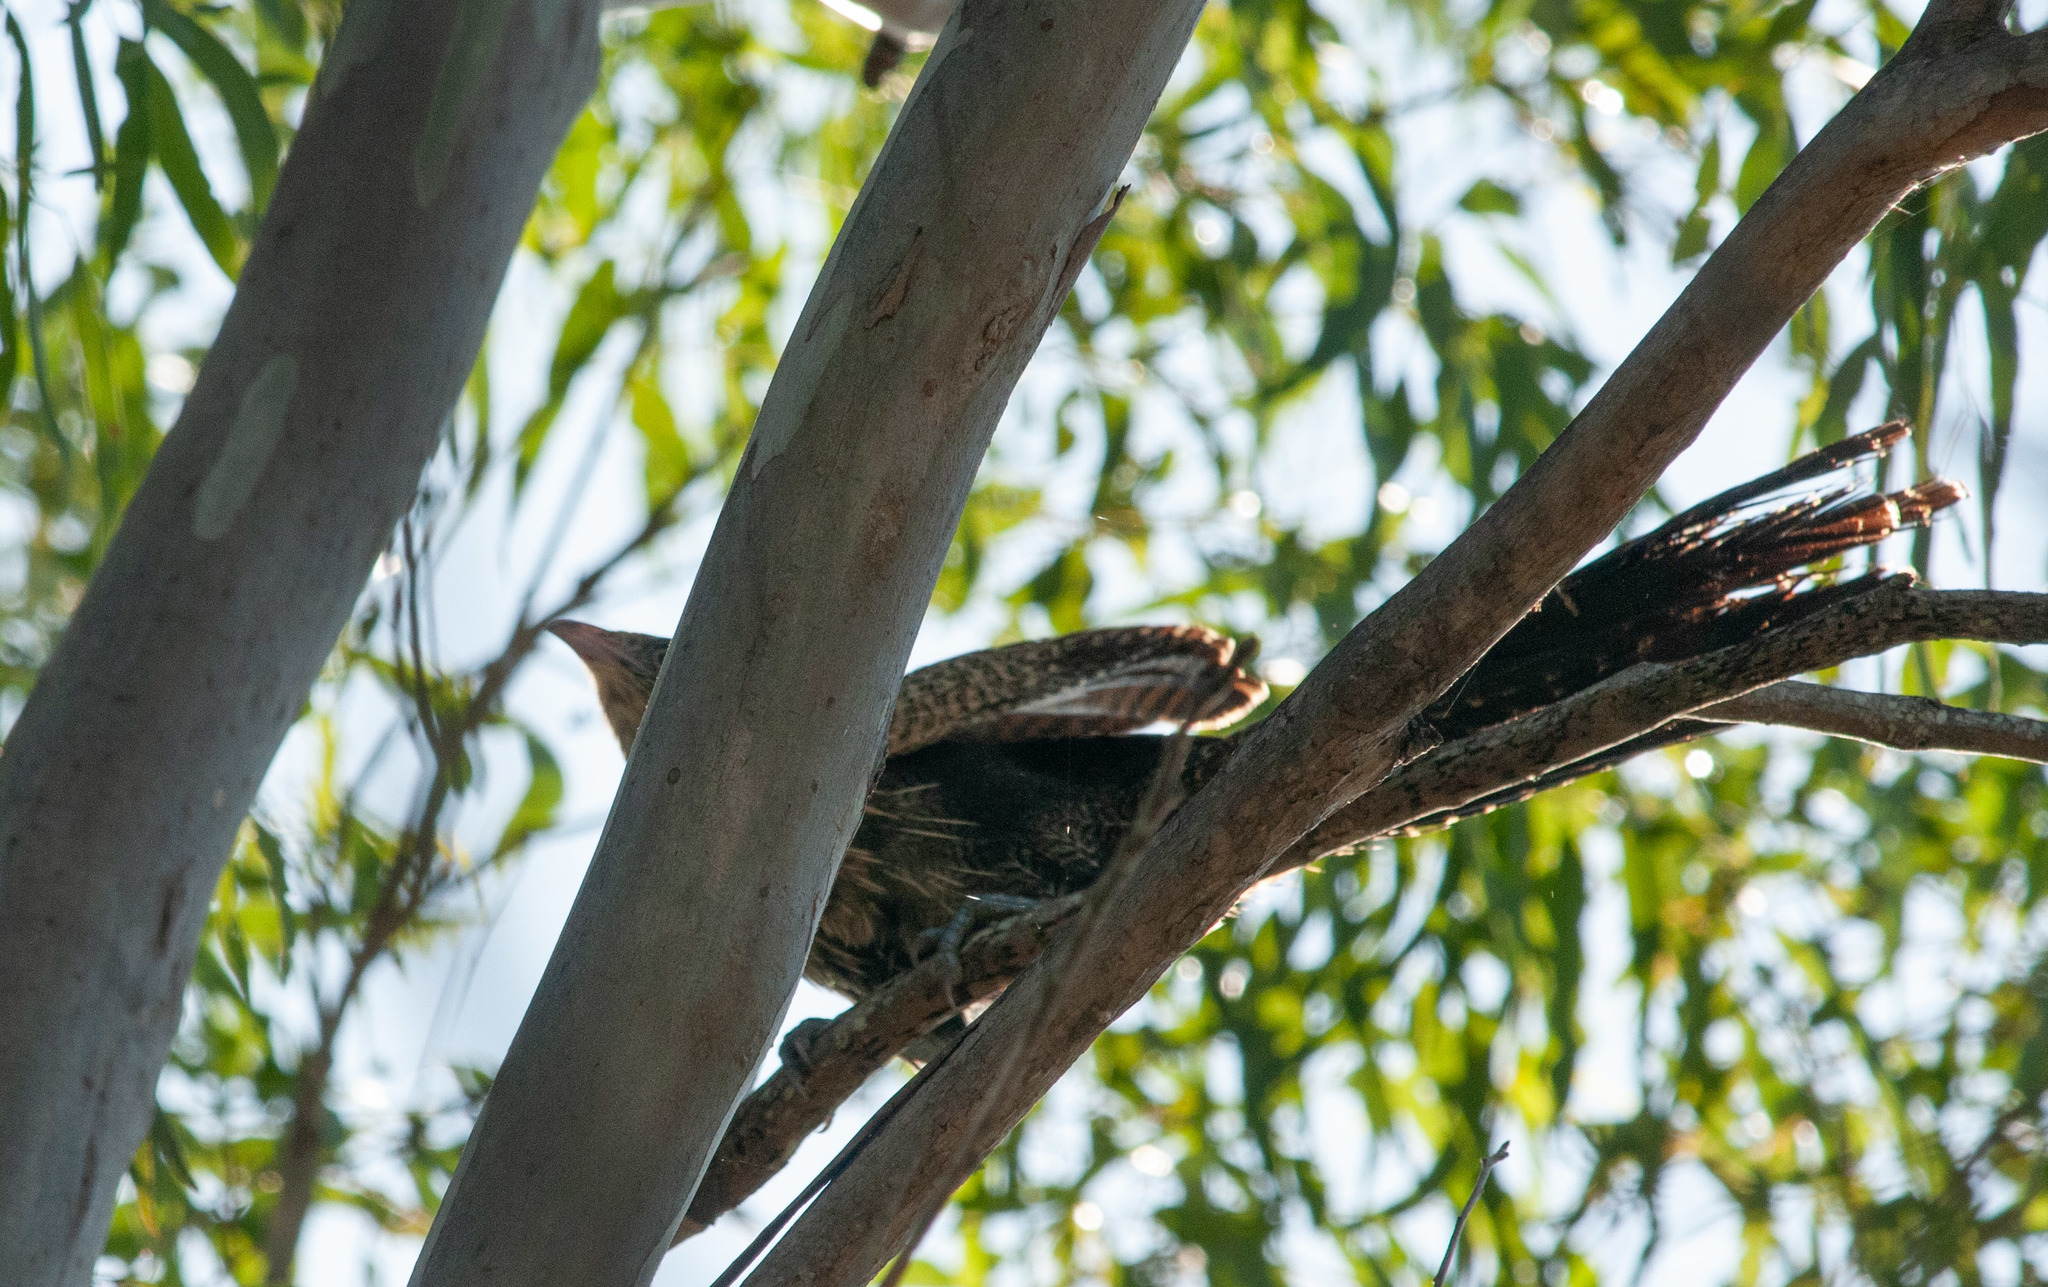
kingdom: Animalia
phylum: Chordata
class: Aves
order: Cuculiformes
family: Cuculidae
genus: Centropus
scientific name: Centropus phasianinus
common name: Pheasant coucal
